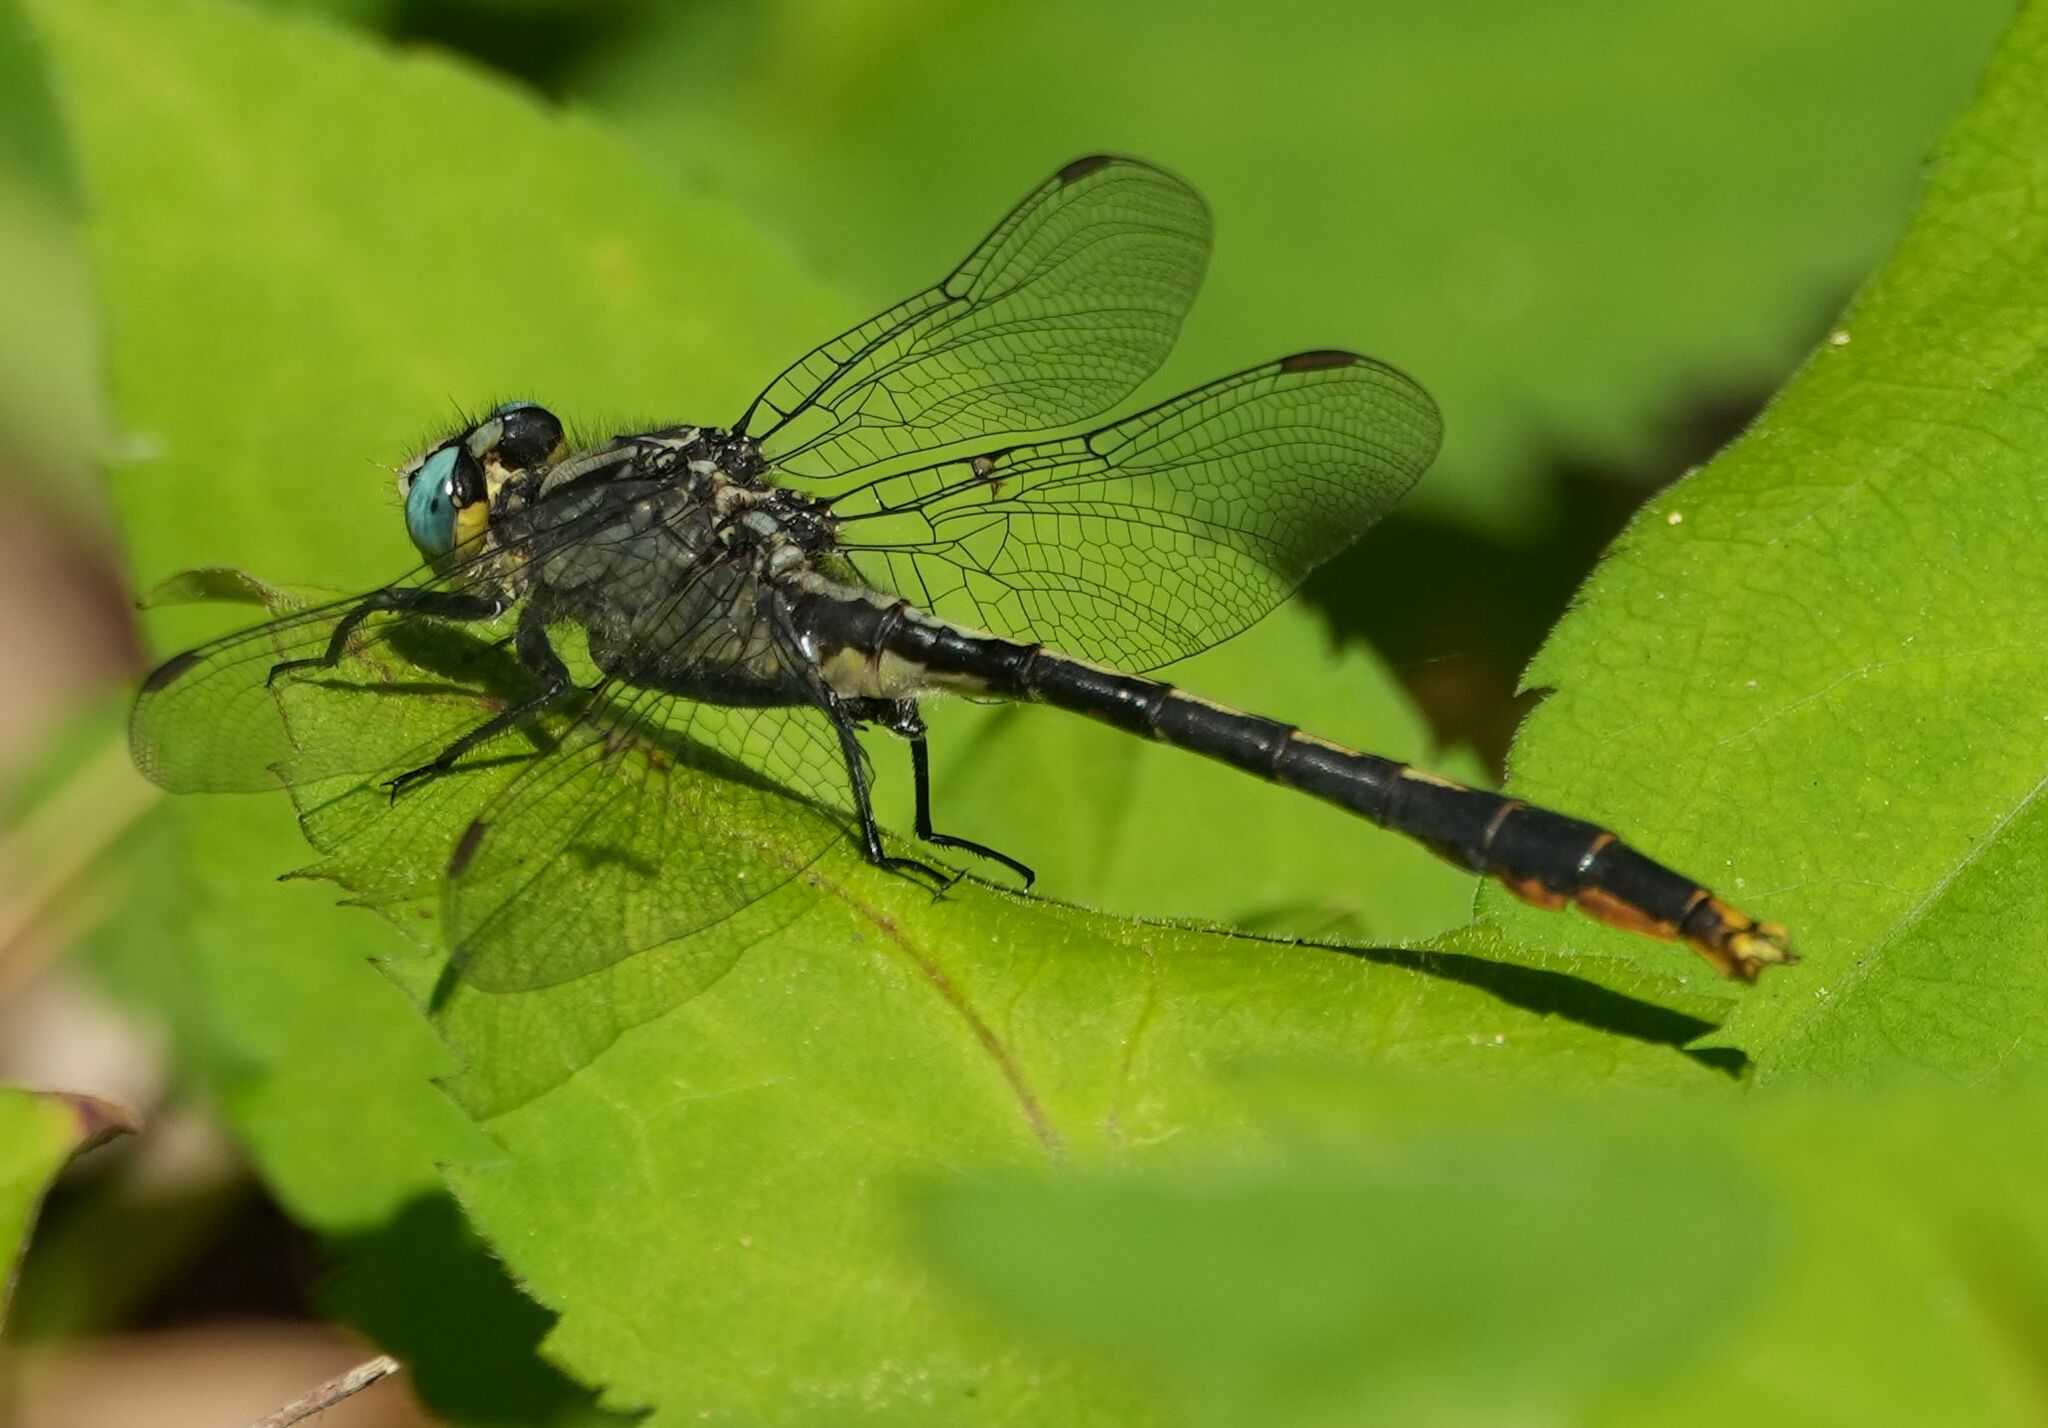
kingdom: Animalia
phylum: Arthropoda
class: Insecta
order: Odonata
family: Gomphidae
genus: Arigomphus
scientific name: Arigomphus furcifer
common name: Lilypad clubtail
